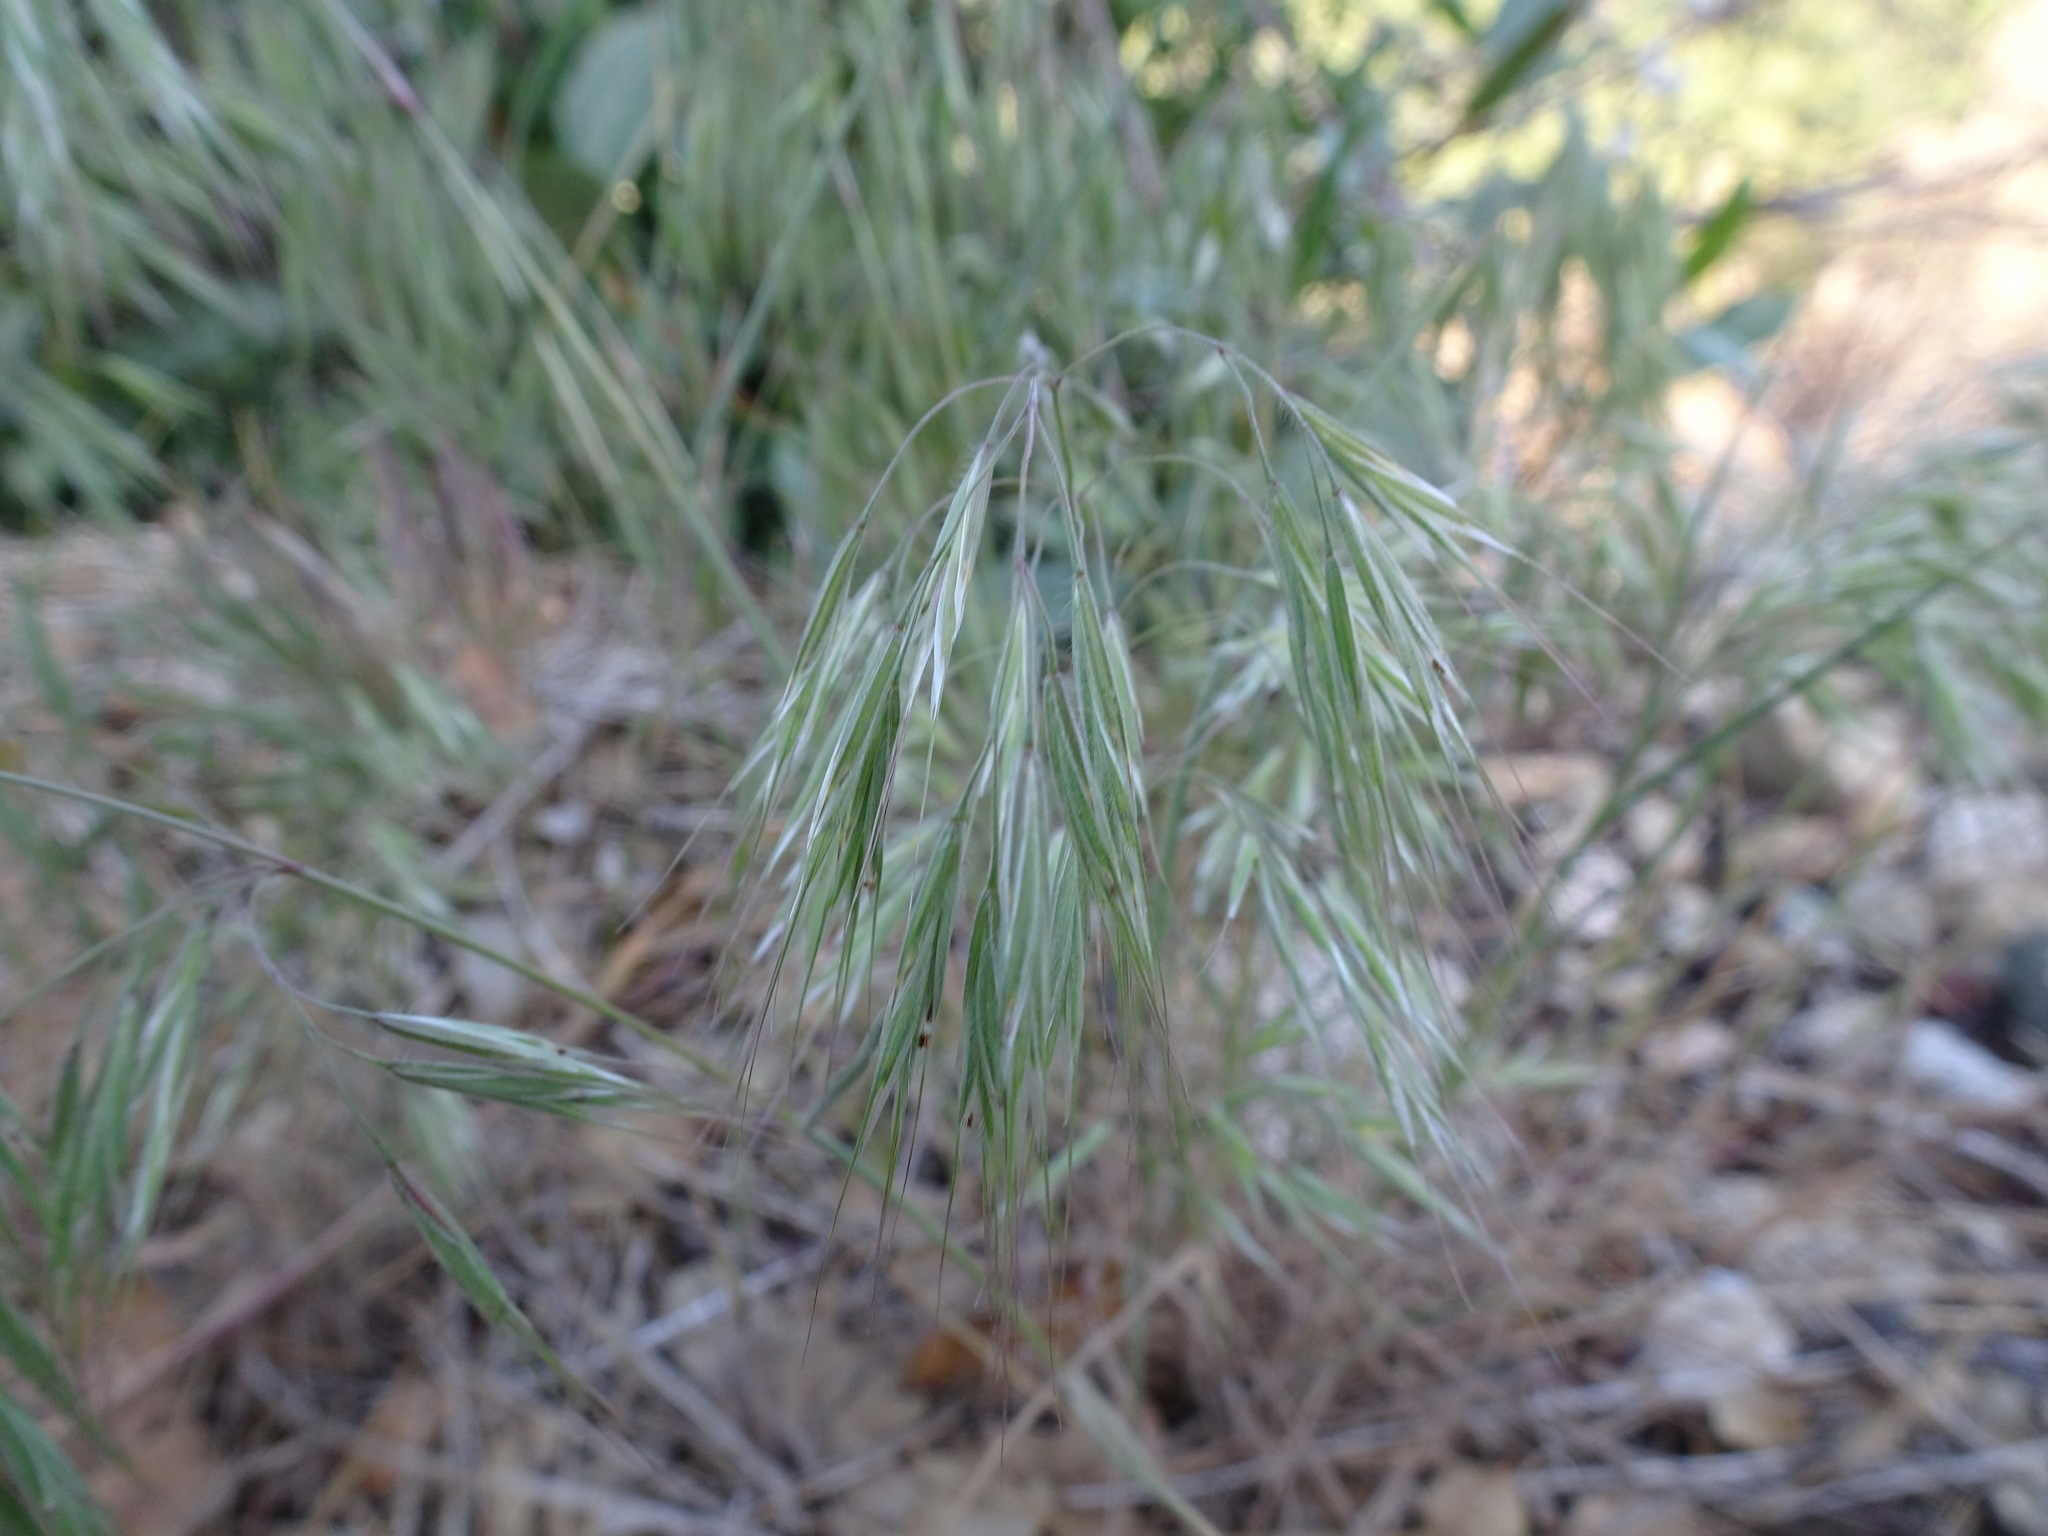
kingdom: Plantae
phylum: Tracheophyta
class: Liliopsida
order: Poales
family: Poaceae
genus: Bromus
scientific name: Bromus tectorum
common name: Cheatgrass
